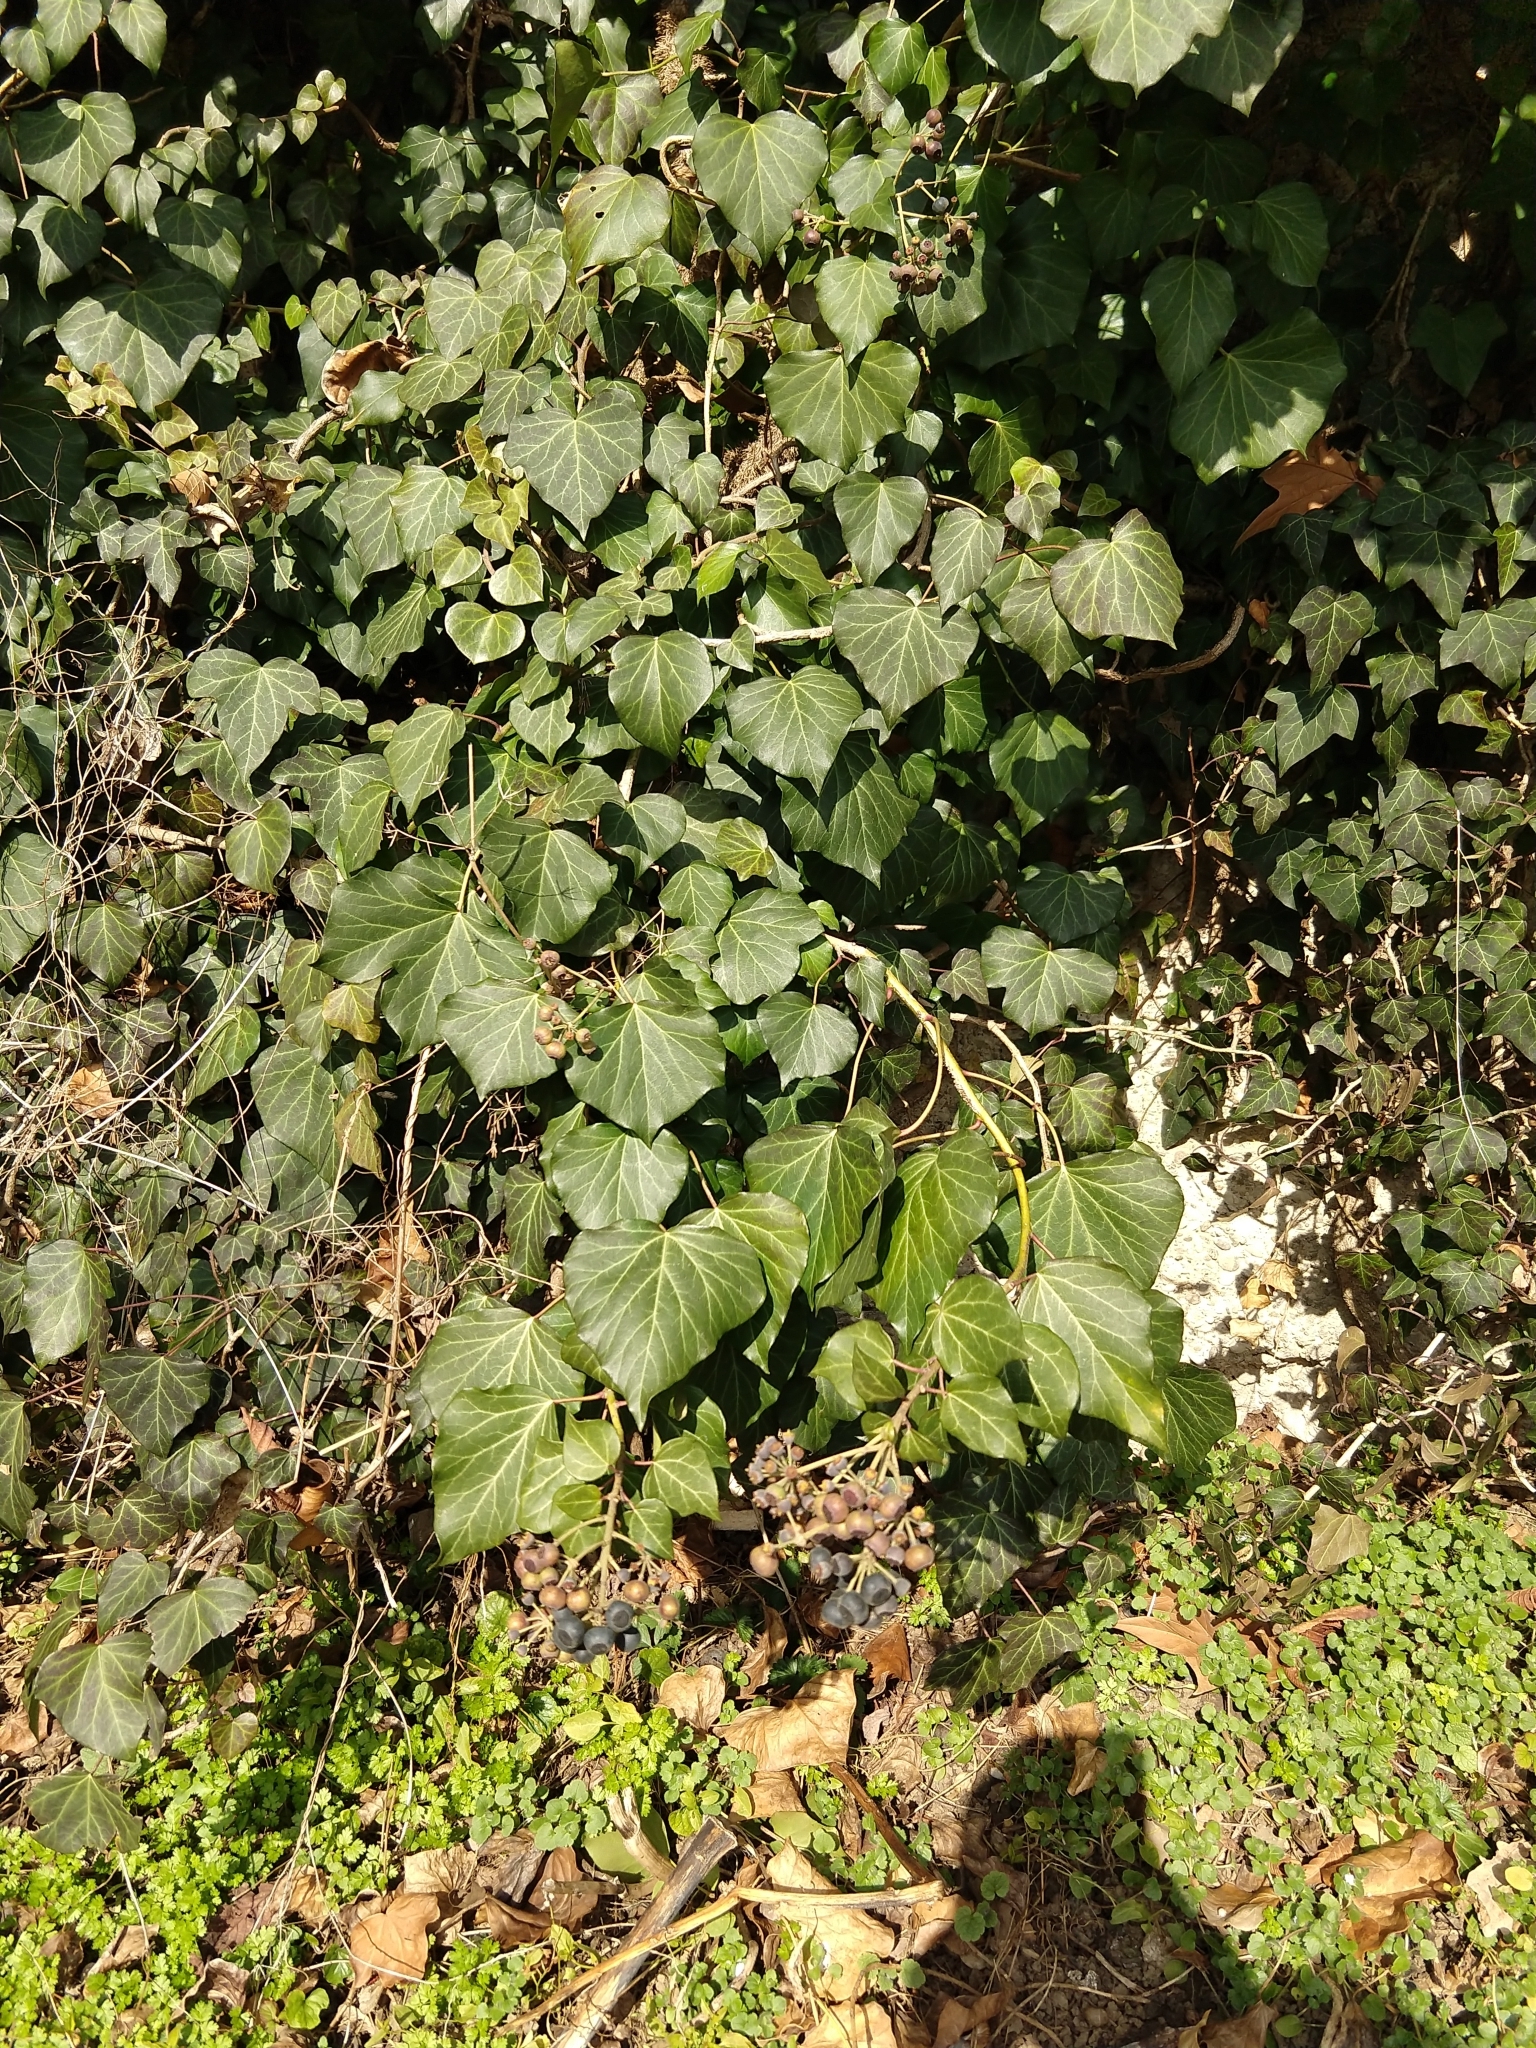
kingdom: Plantae
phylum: Tracheophyta
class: Magnoliopsida
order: Apiales
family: Araliaceae
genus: Hedera
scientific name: Hedera helix
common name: Ivy
